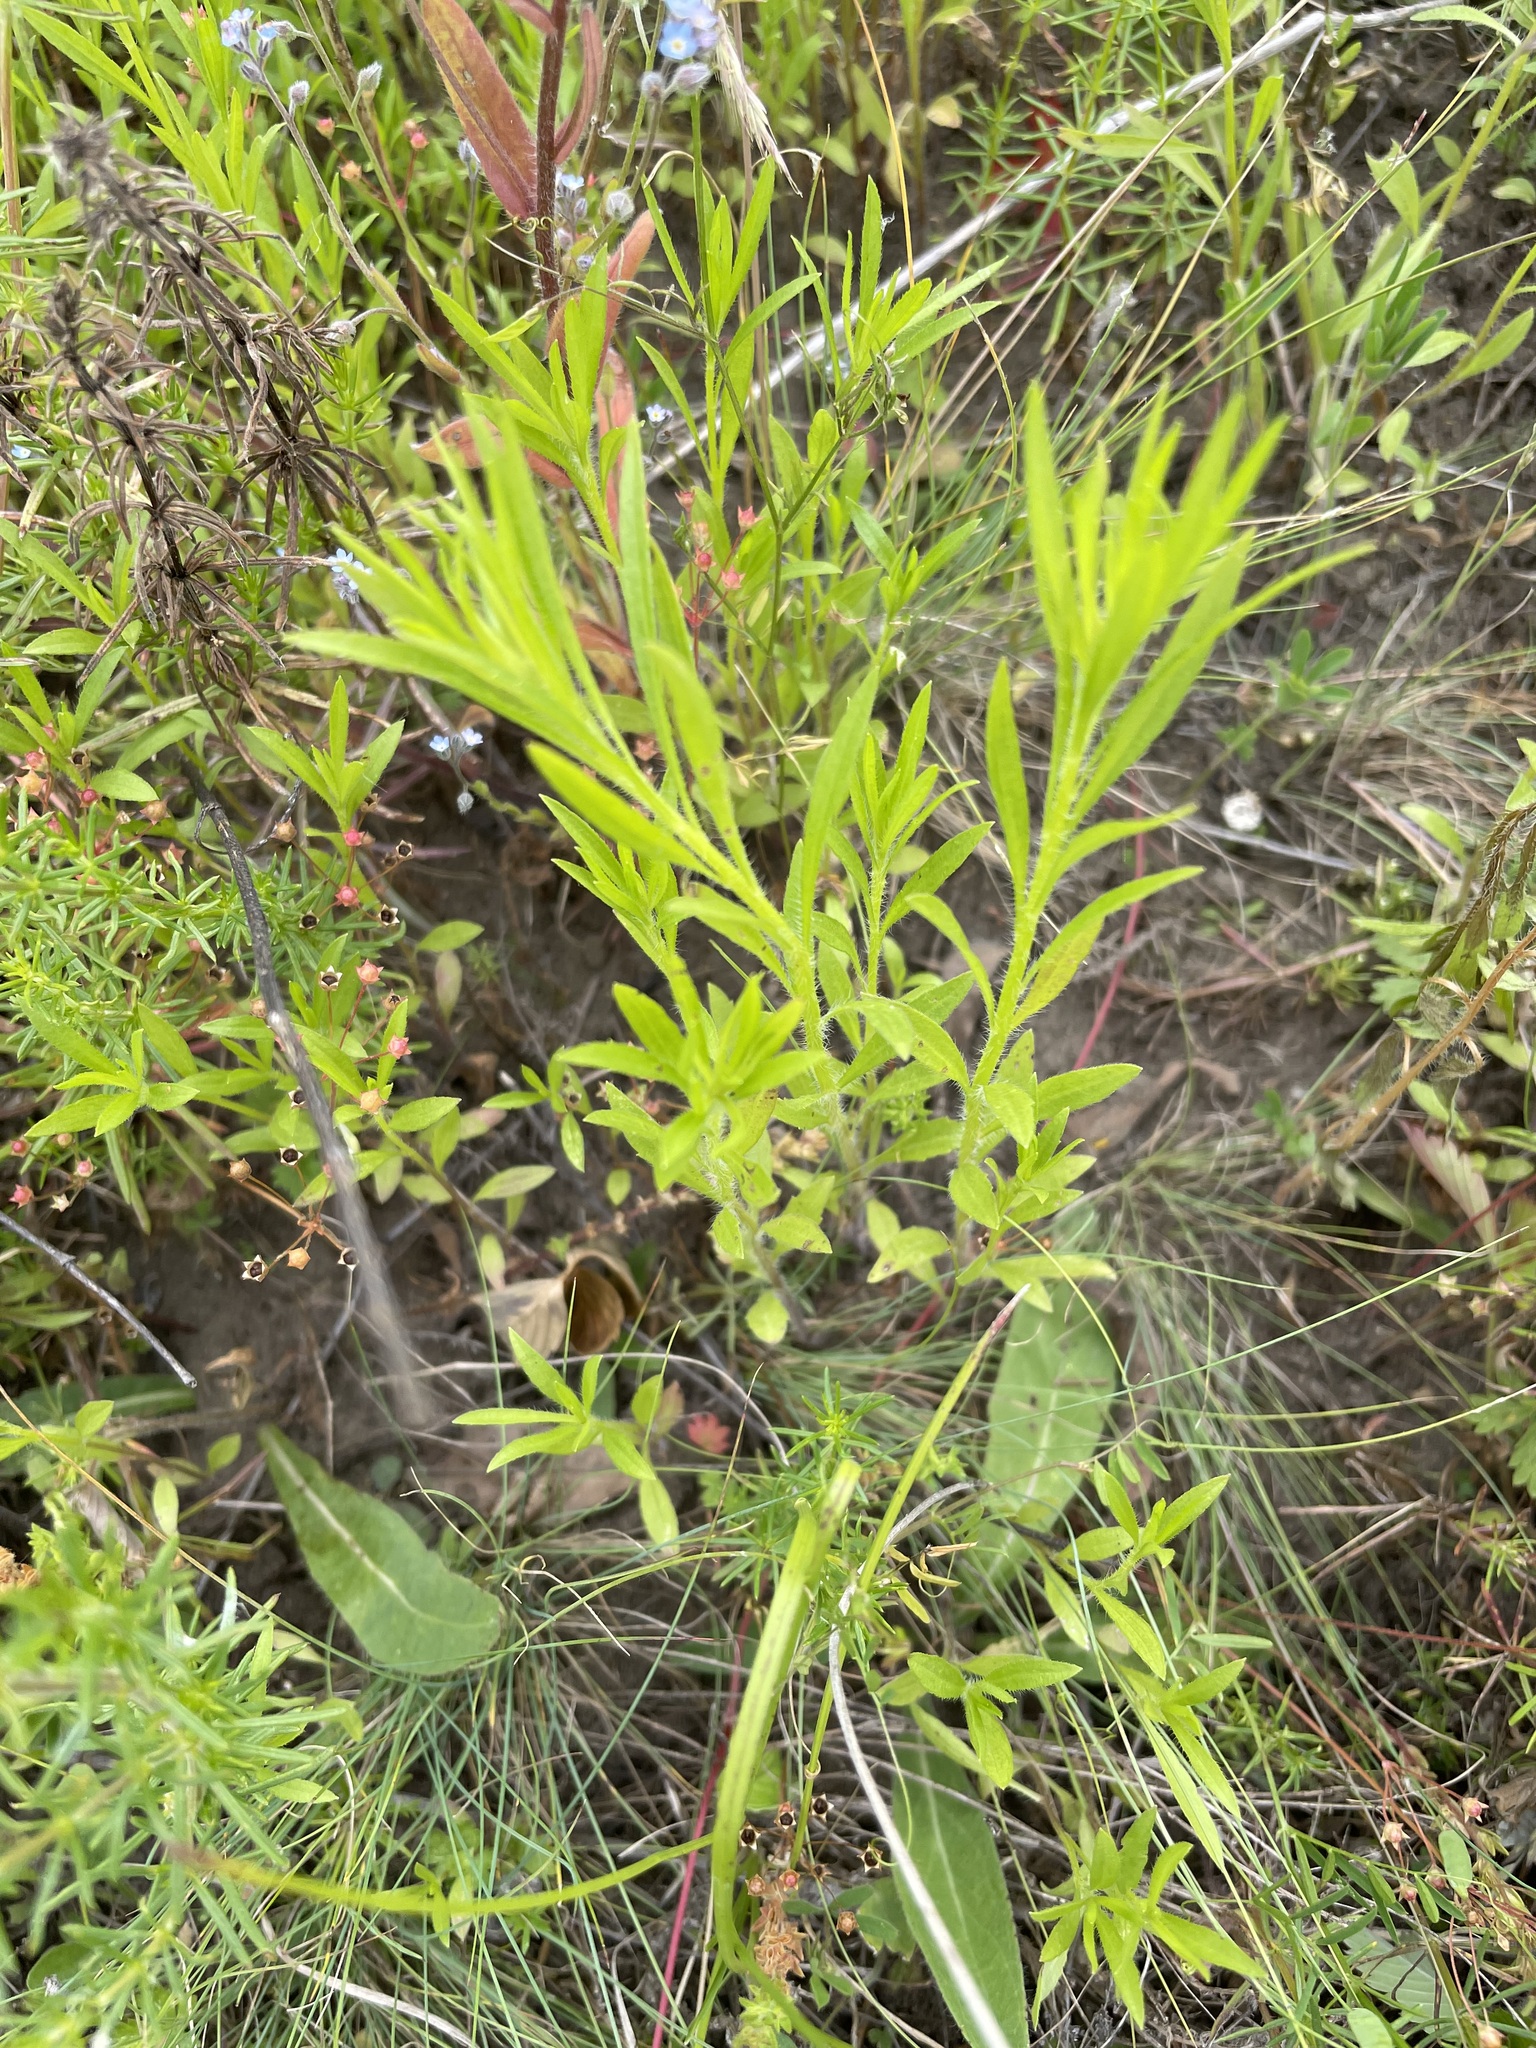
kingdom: Plantae
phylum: Tracheophyta
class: Magnoliopsida
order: Asterales
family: Asteraceae
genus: Erigeron
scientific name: Erigeron canadensis
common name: Canadian fleabane
